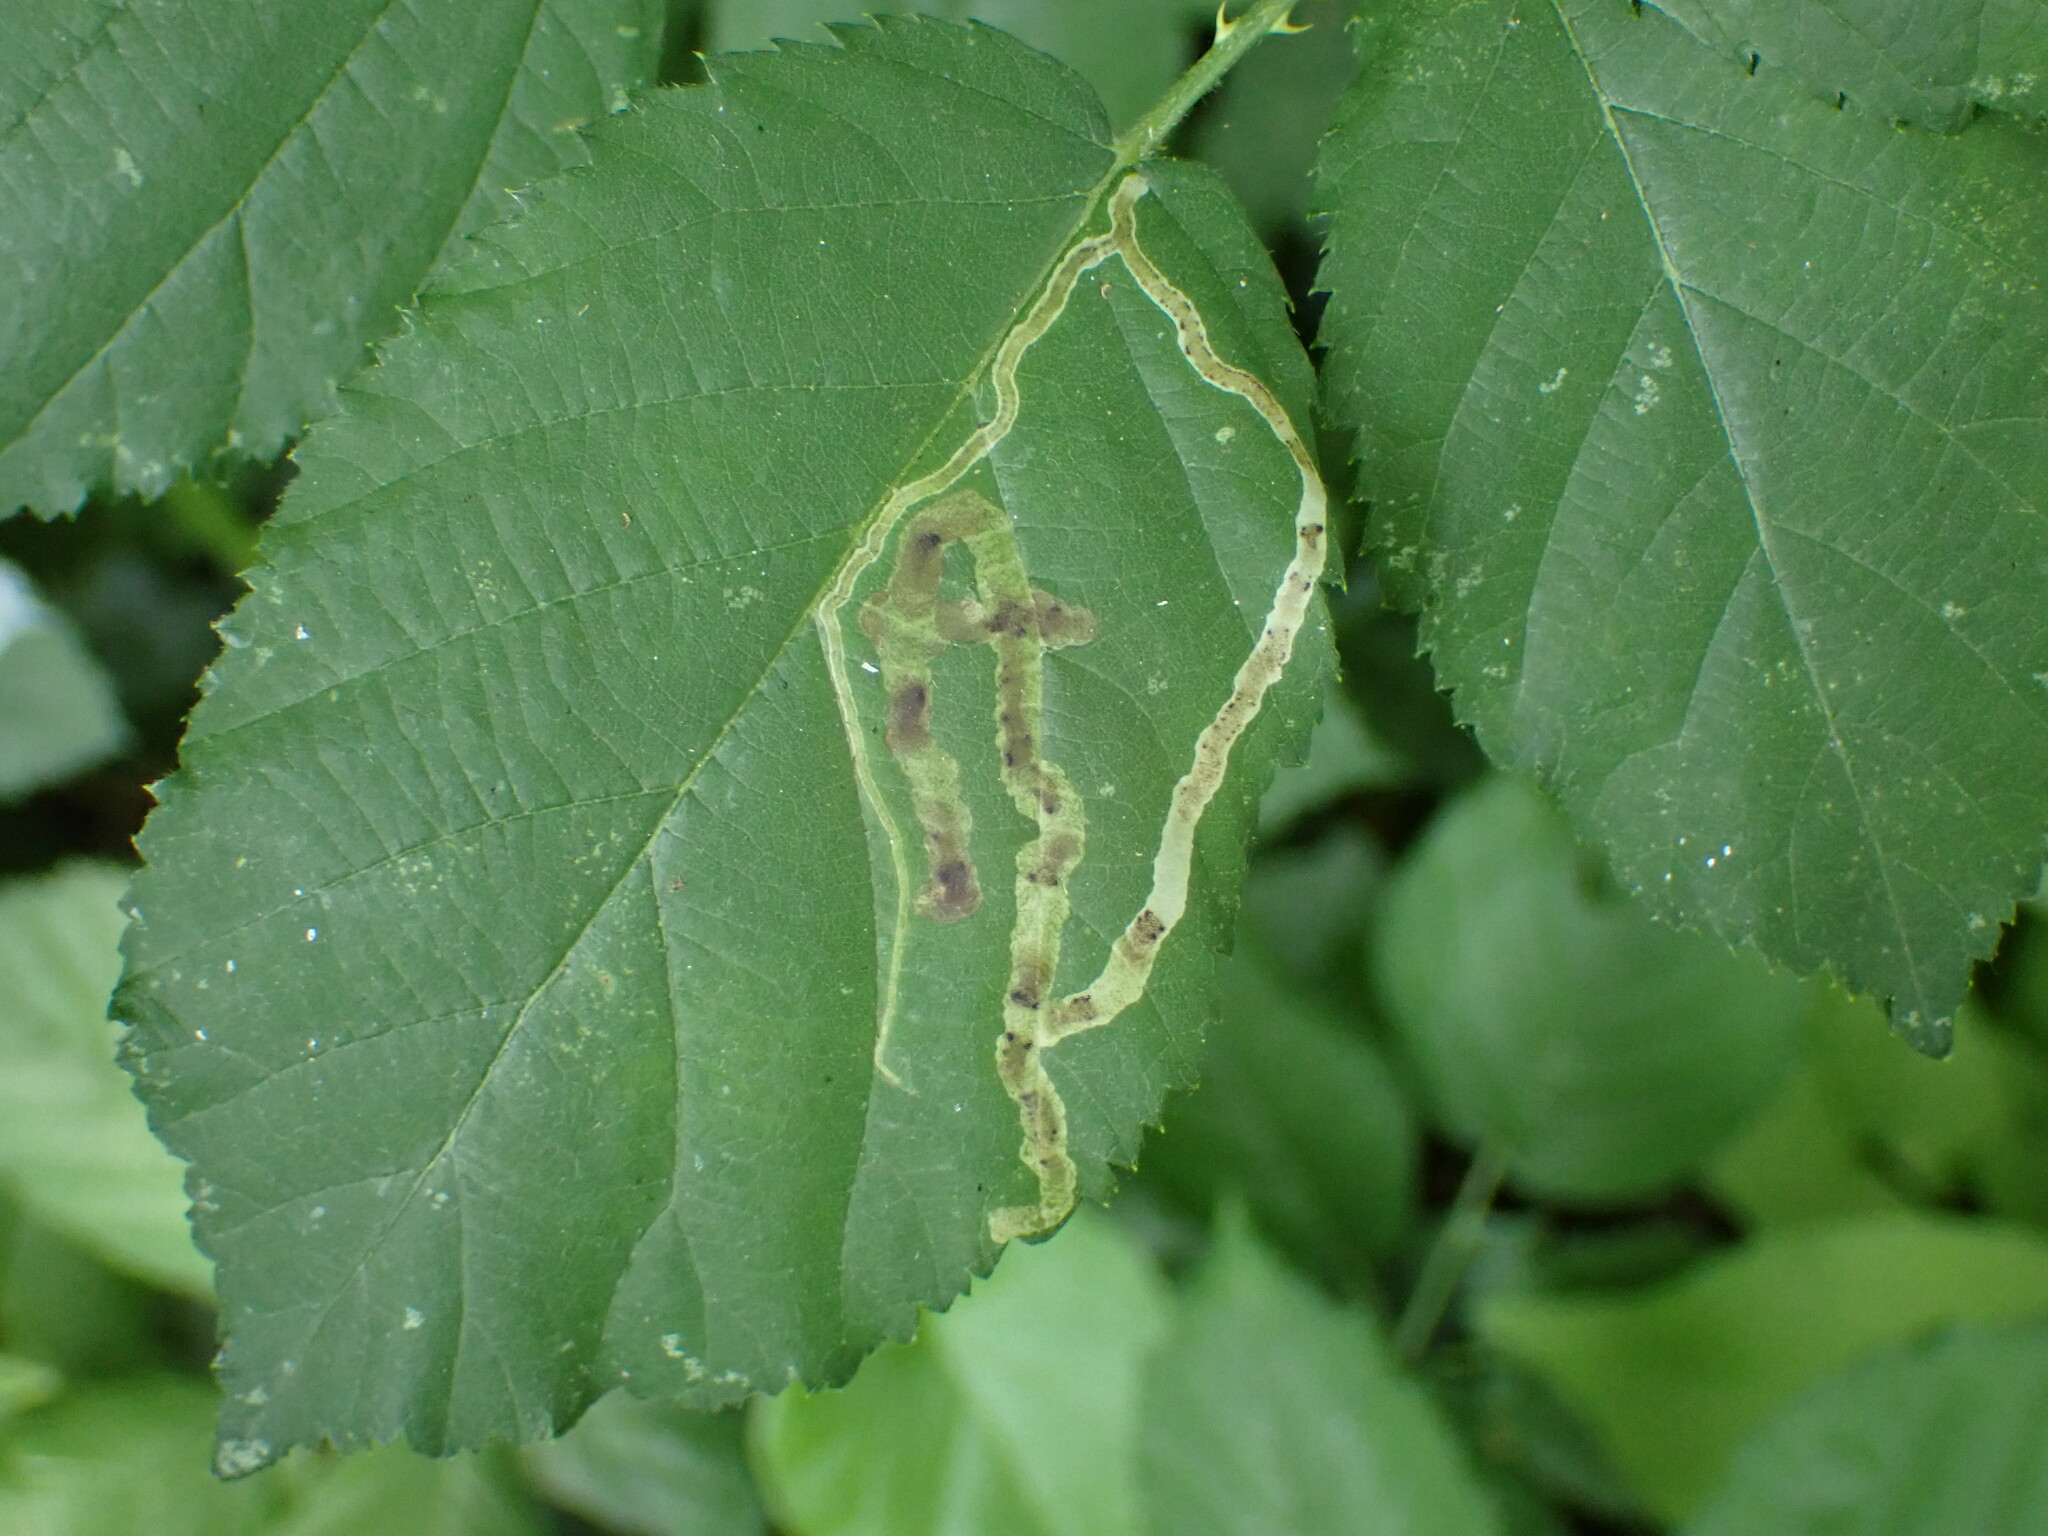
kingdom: Animalia
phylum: Arthropoda
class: Insecta
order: Diptera
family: Agromyzidae
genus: Agromyza
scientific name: Agromyza vockerothi
